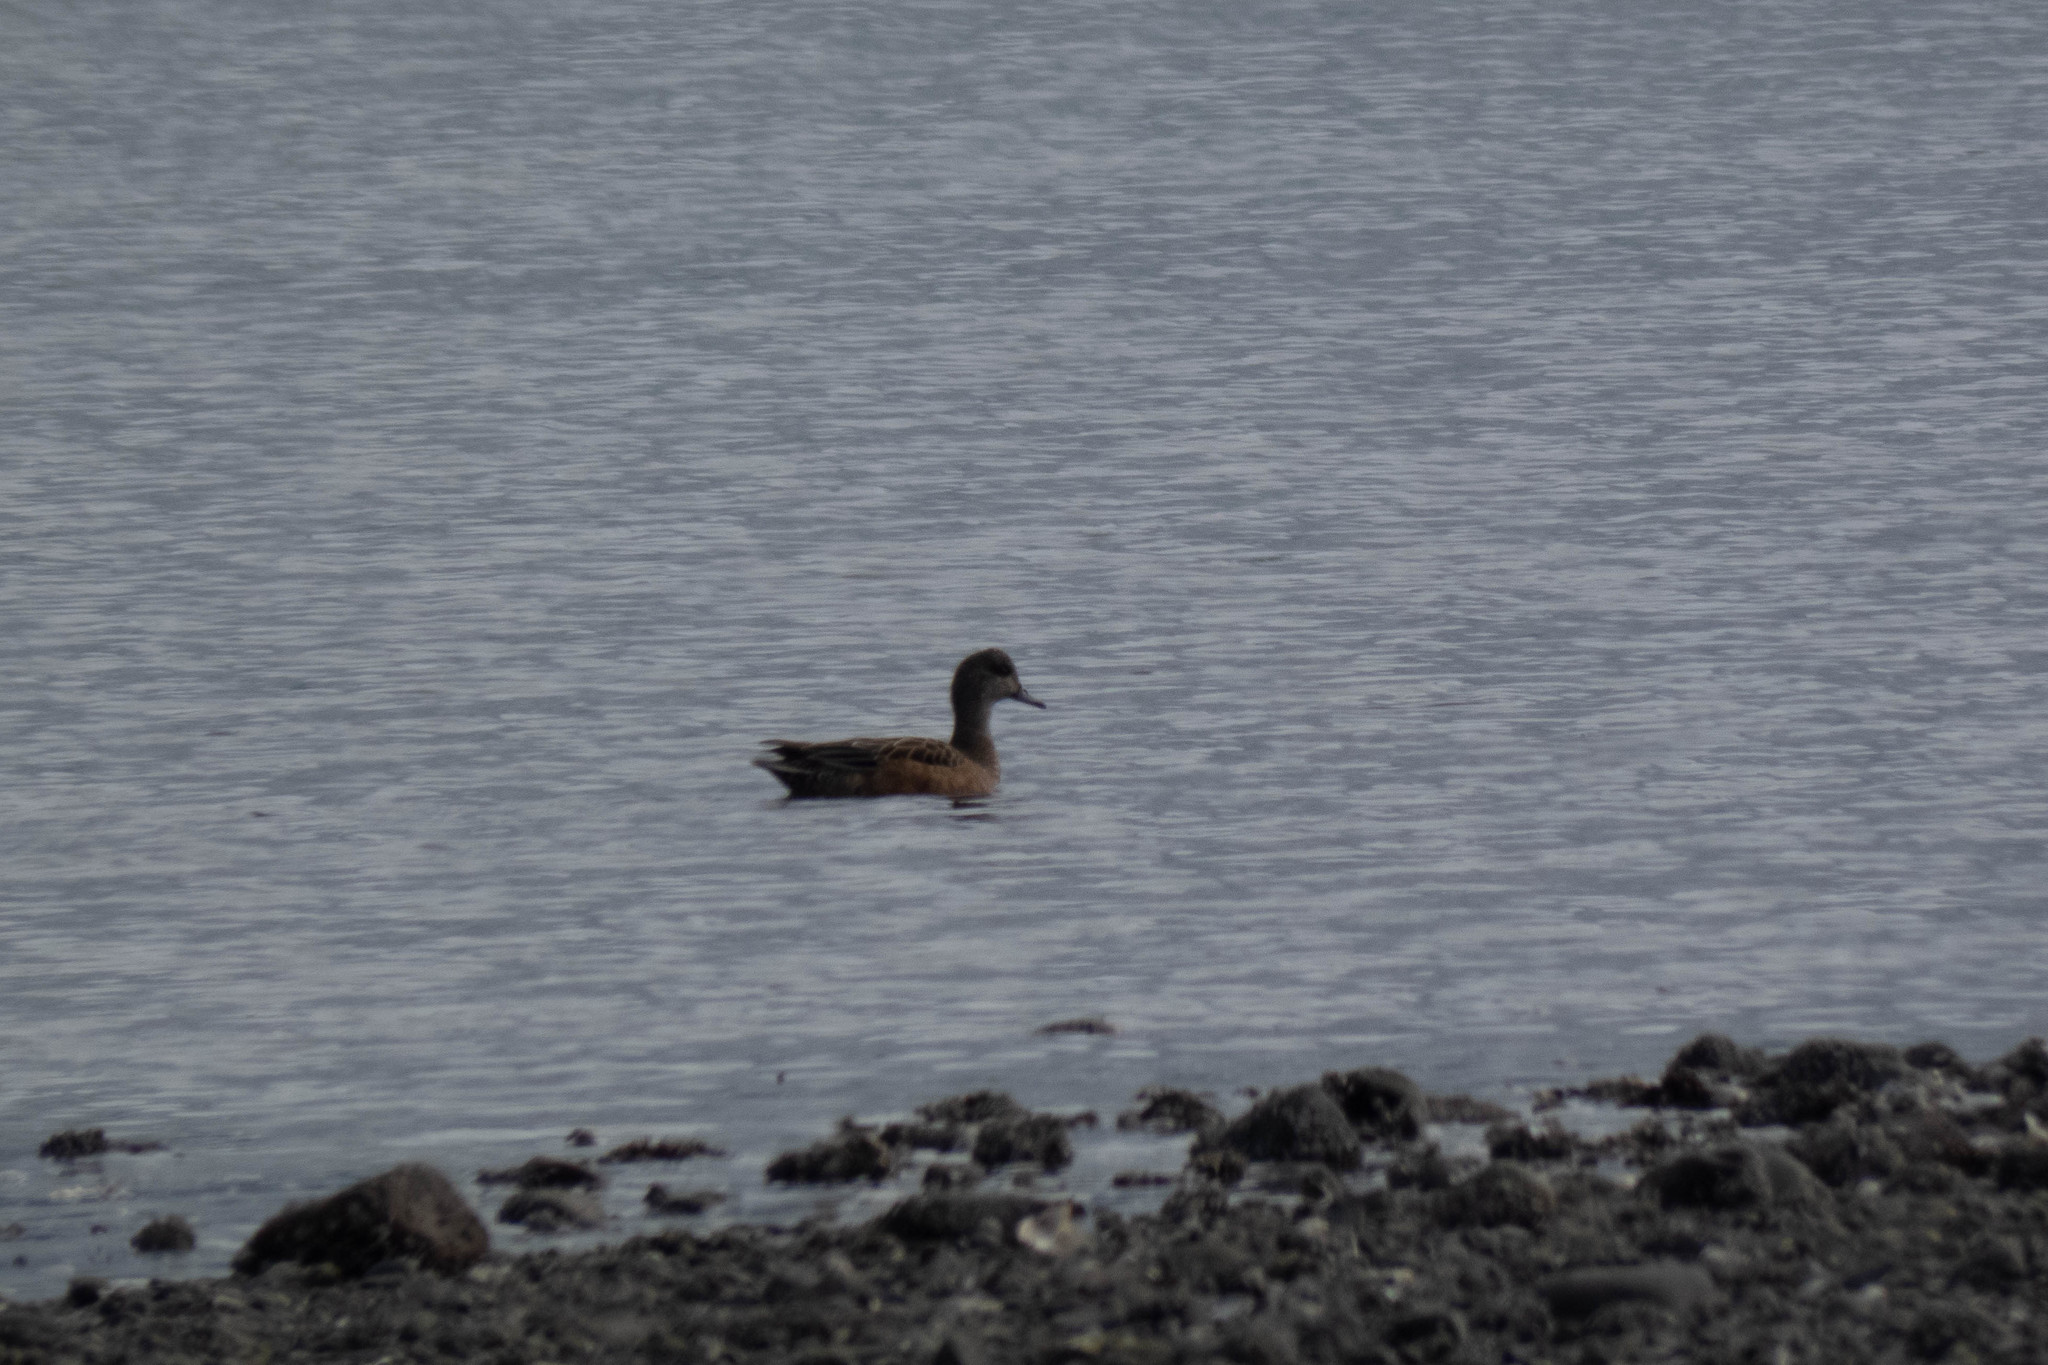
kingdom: Animalia
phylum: Chordata
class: Aves
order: Anseriformes
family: Anatidae
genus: Mareca
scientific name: Mareca americana
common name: American wigeon
